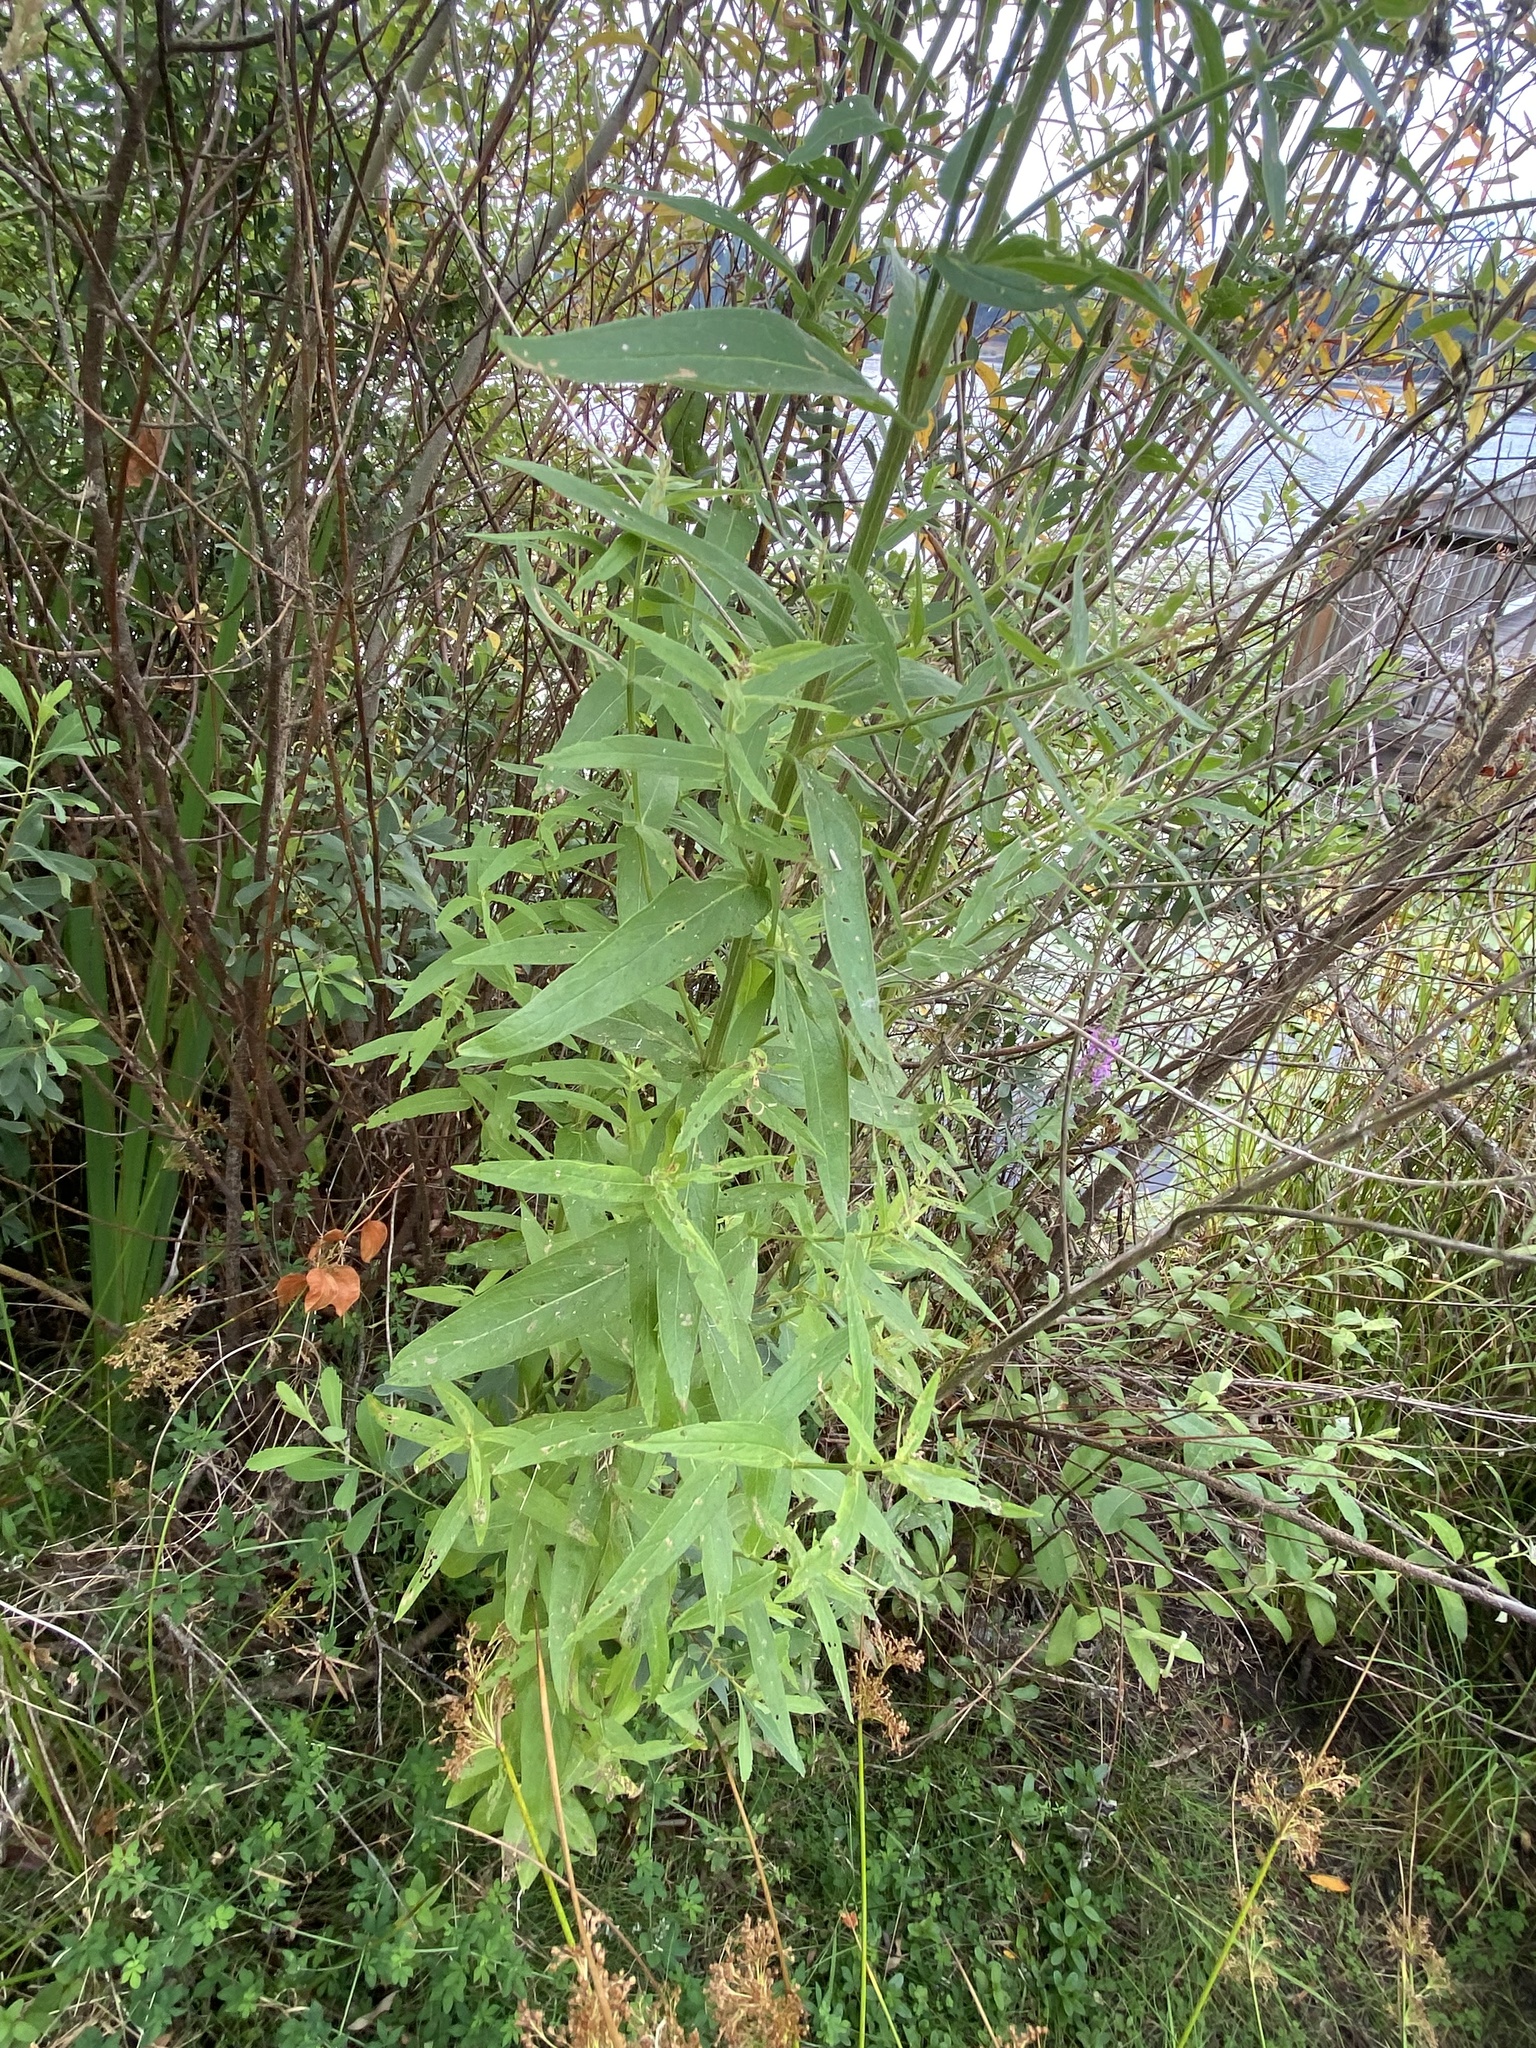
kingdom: Plantae
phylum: Tracheophyta
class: Magnoliopsida
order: Myrtales
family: Lythraceae
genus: Lythrum
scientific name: Lythrum salicaria
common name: Purple loosestrife
